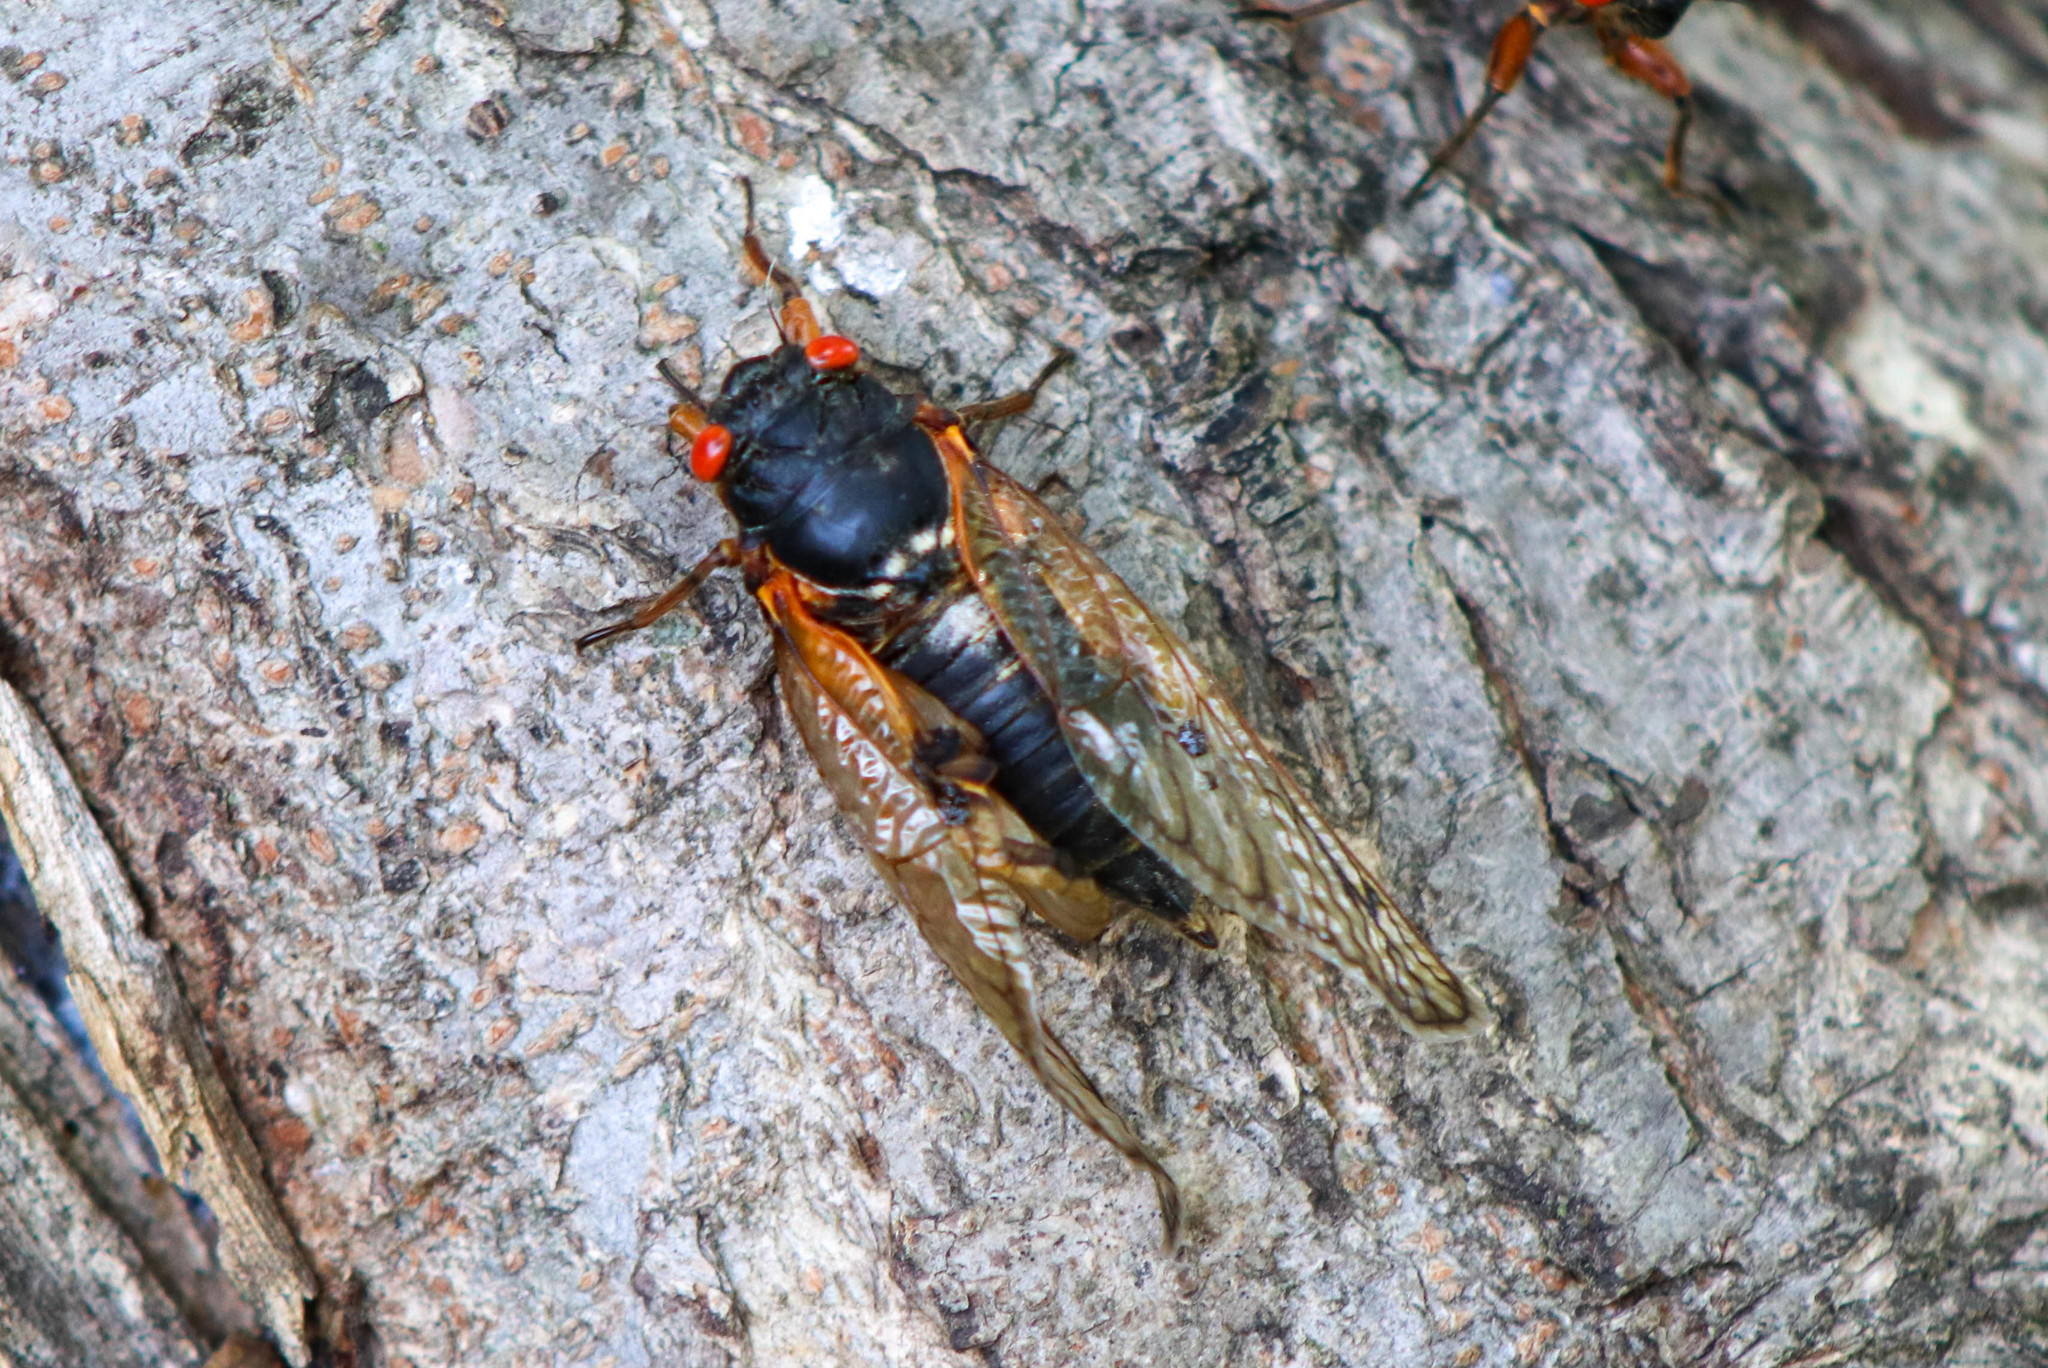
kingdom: Animalia
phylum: Arthropoda
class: Insecta
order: Hemiptera
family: Cicadidae
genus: Magicicada
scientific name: Magicicada
